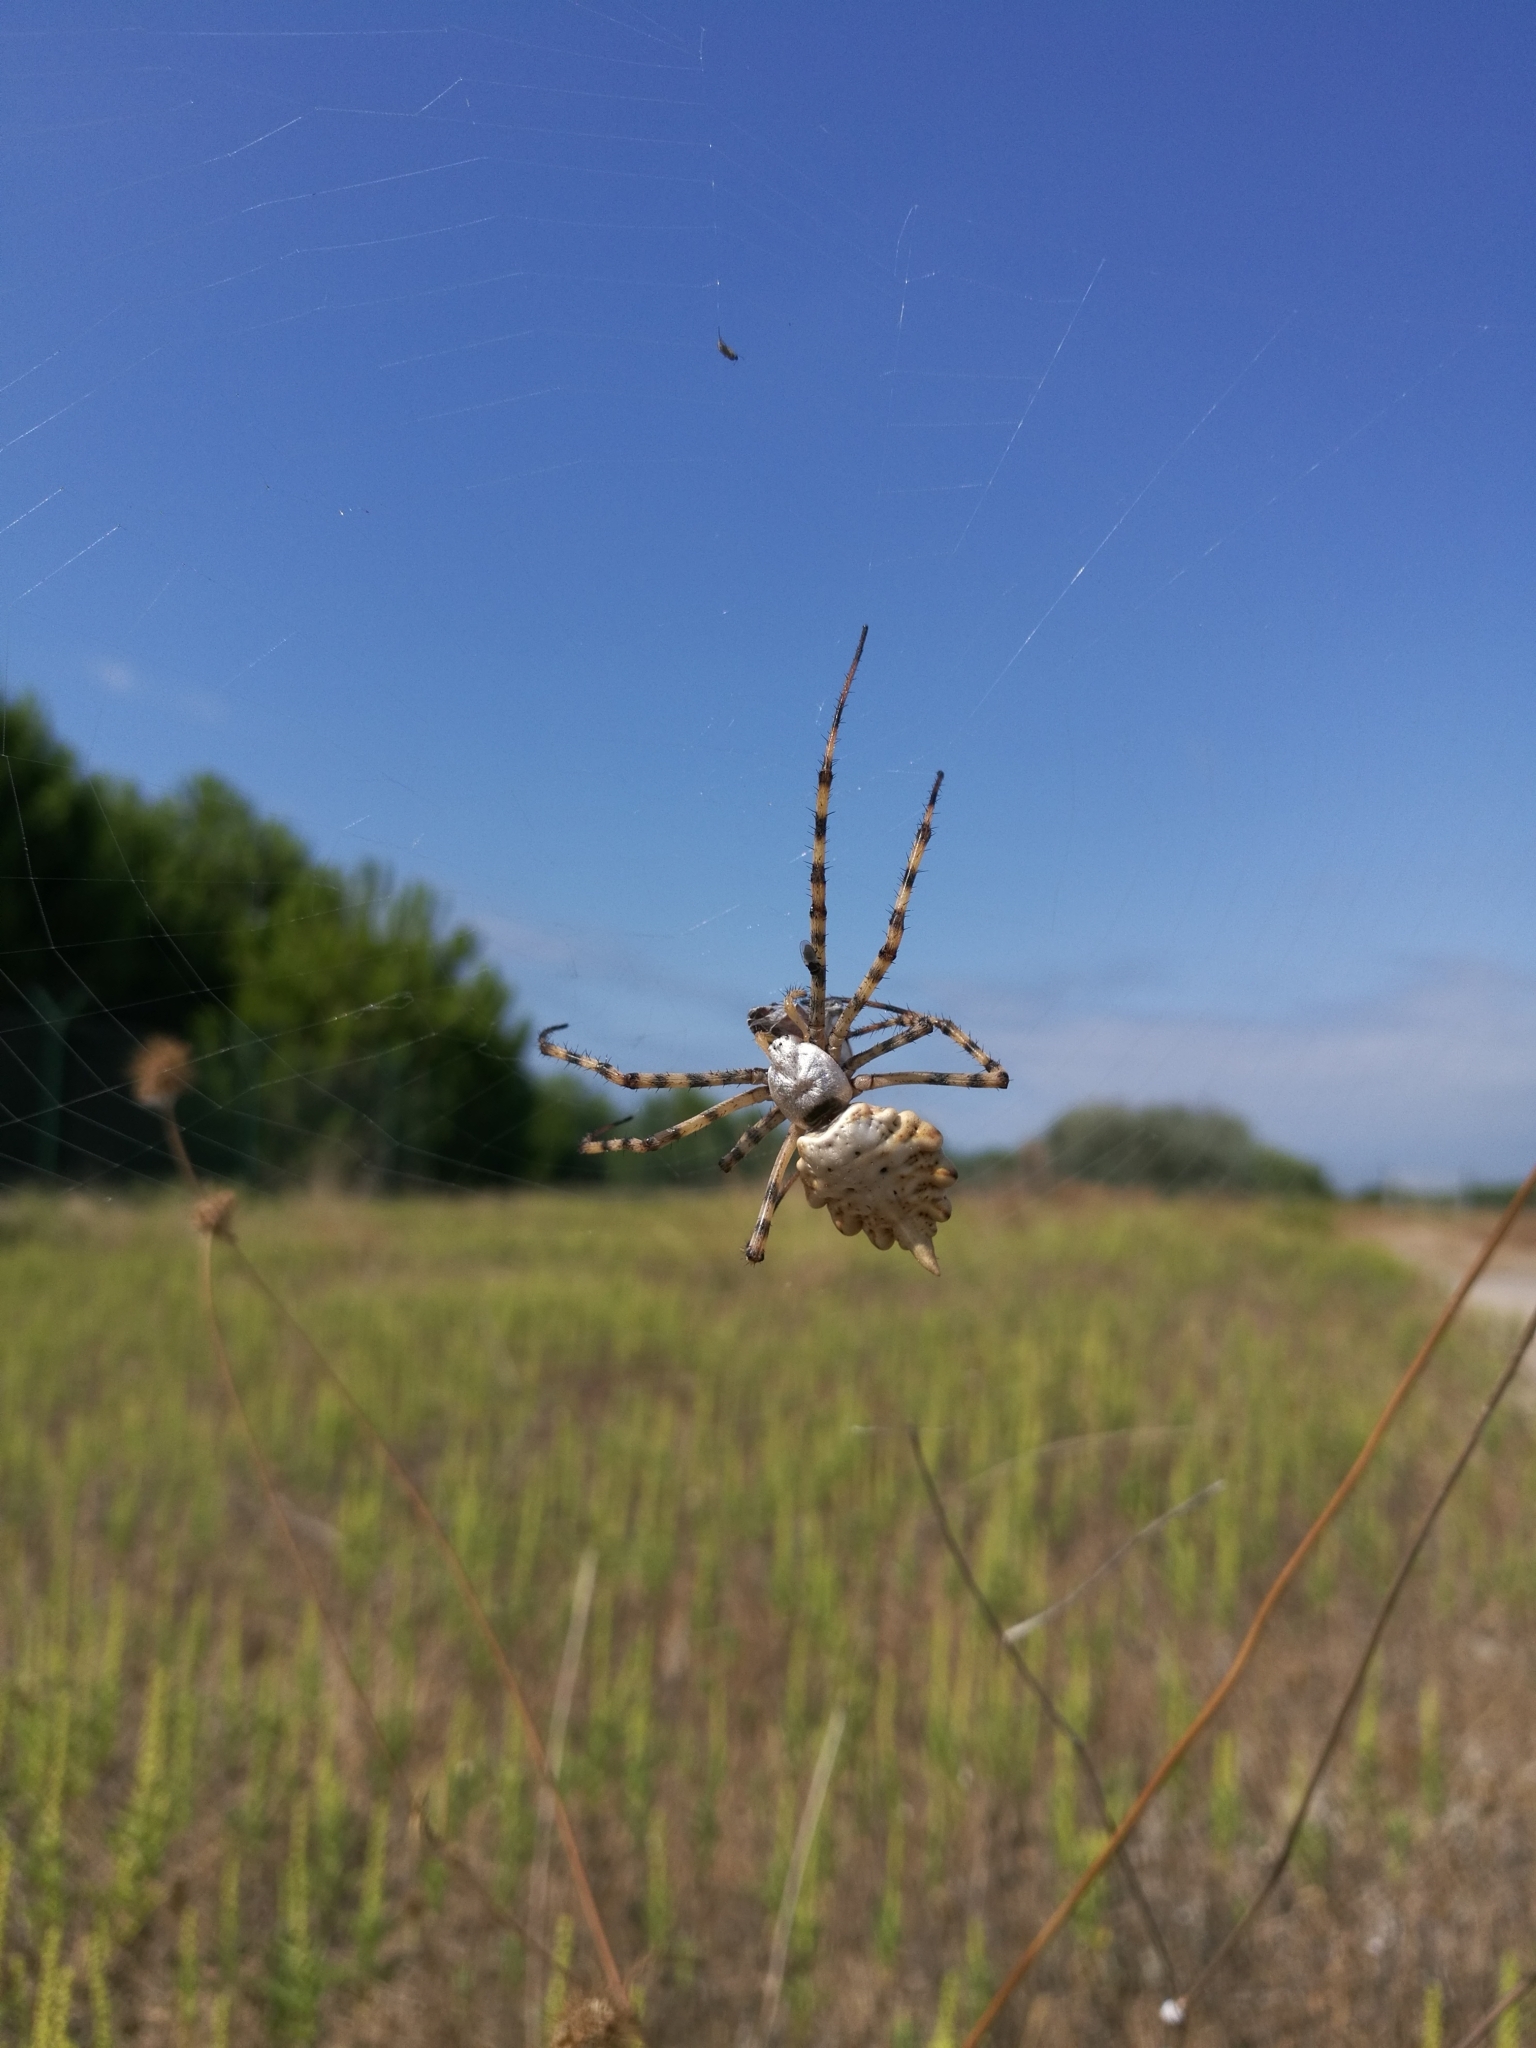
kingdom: Animalia
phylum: Arthropoda
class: Arachnida
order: Araneae
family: Araneidae
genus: Argiope
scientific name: Argiope lobata
